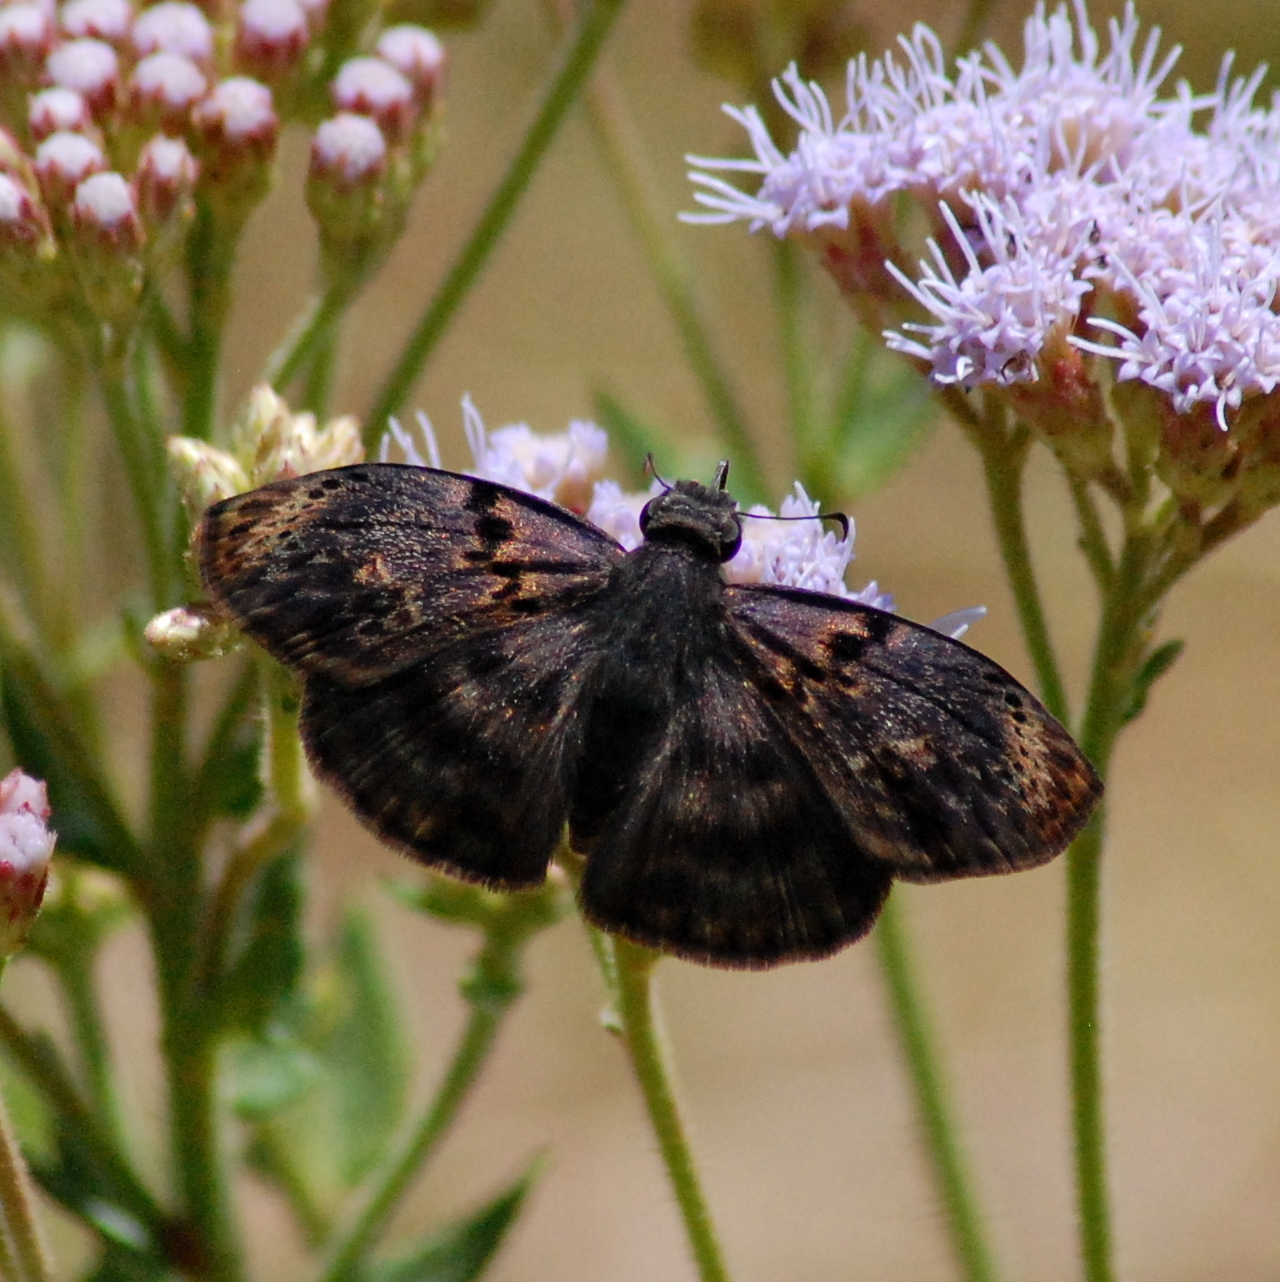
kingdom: Animalia
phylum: Arthropoda
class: Insecta
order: Lepidoptera
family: Hesperiidae
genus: Chiomara
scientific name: Chiomara mithrax
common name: Slaty skipper
